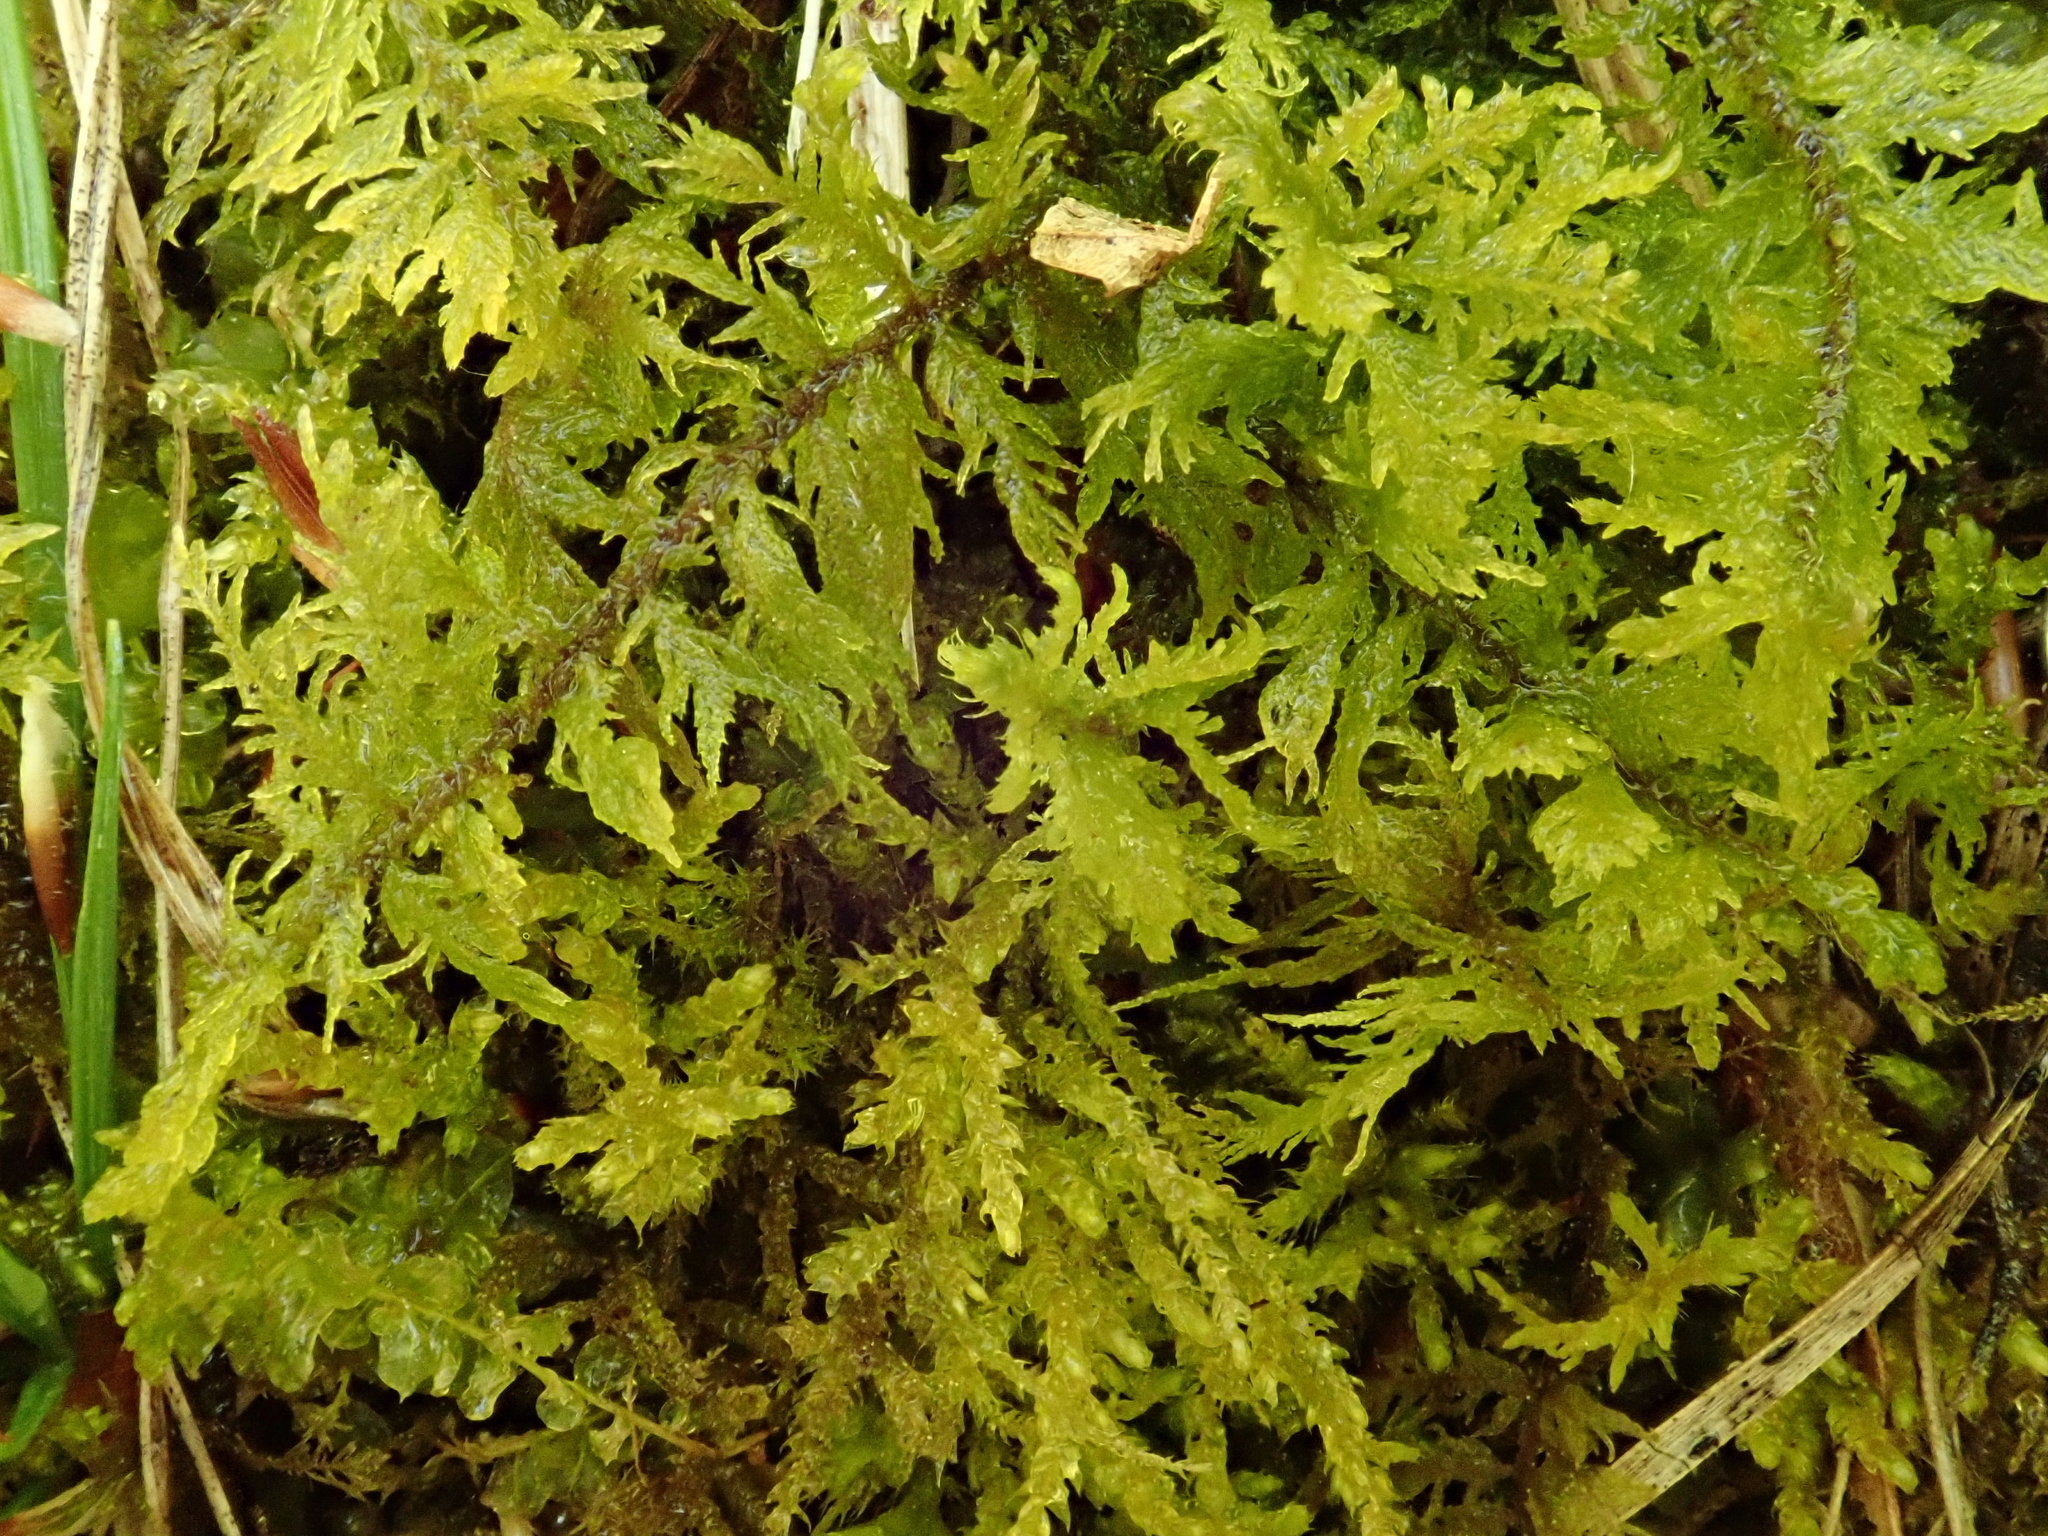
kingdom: Plantae
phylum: Bryophyta
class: Bryopsida
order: Hypnales
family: Thuidiaceae
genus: Thuidium
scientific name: Thuidium assimile
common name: Philibert's fern moss
